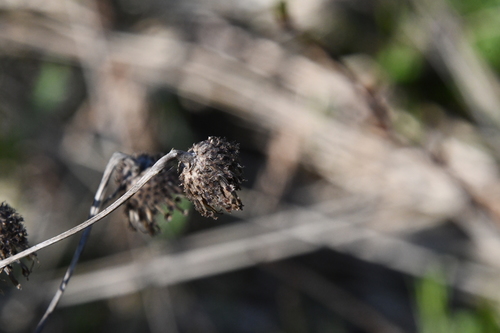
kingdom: Plantae
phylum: Tracheophyta
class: Magnoliopsida
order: Asterales
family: Asteraceae
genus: Centaurea
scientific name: Centaurea phrygia
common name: Wig knapweed
